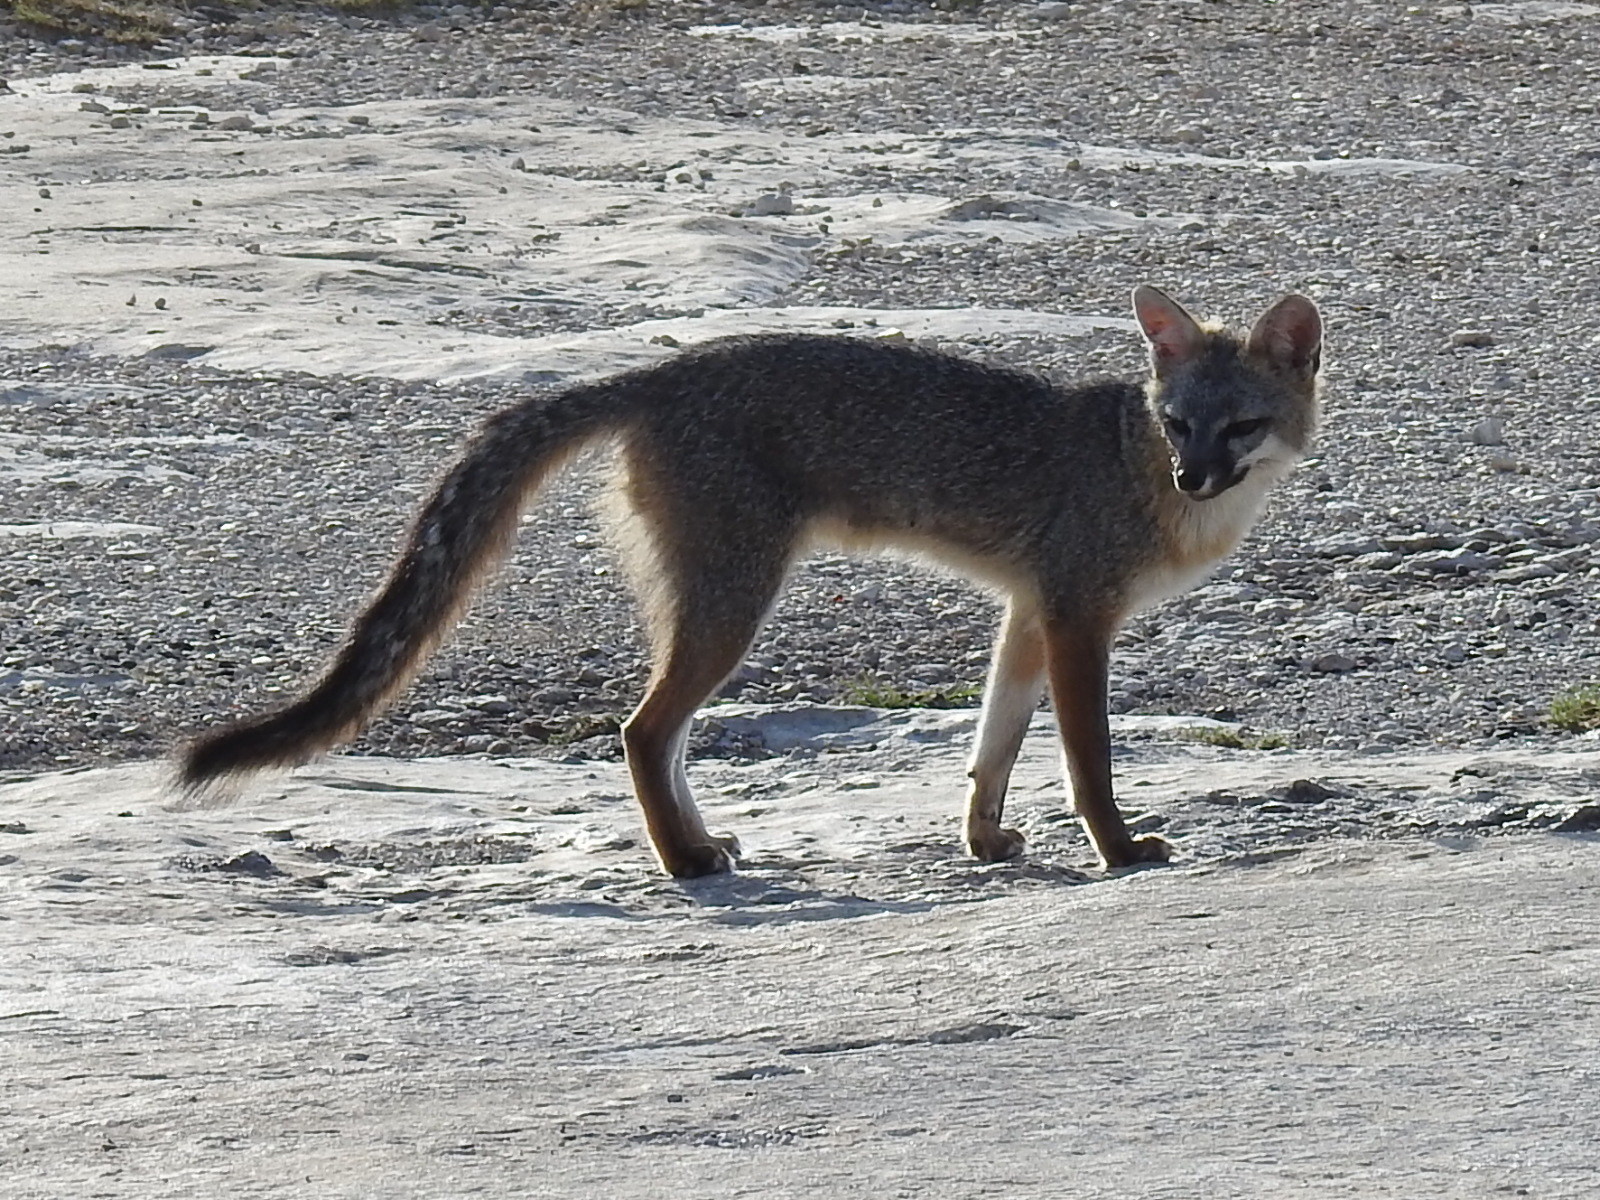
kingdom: Animalia
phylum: Chordata
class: Mammalia
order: Carnivora
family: Canidae
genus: Urocyon
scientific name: Urocyon cinereoargenteus
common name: Gray fox
